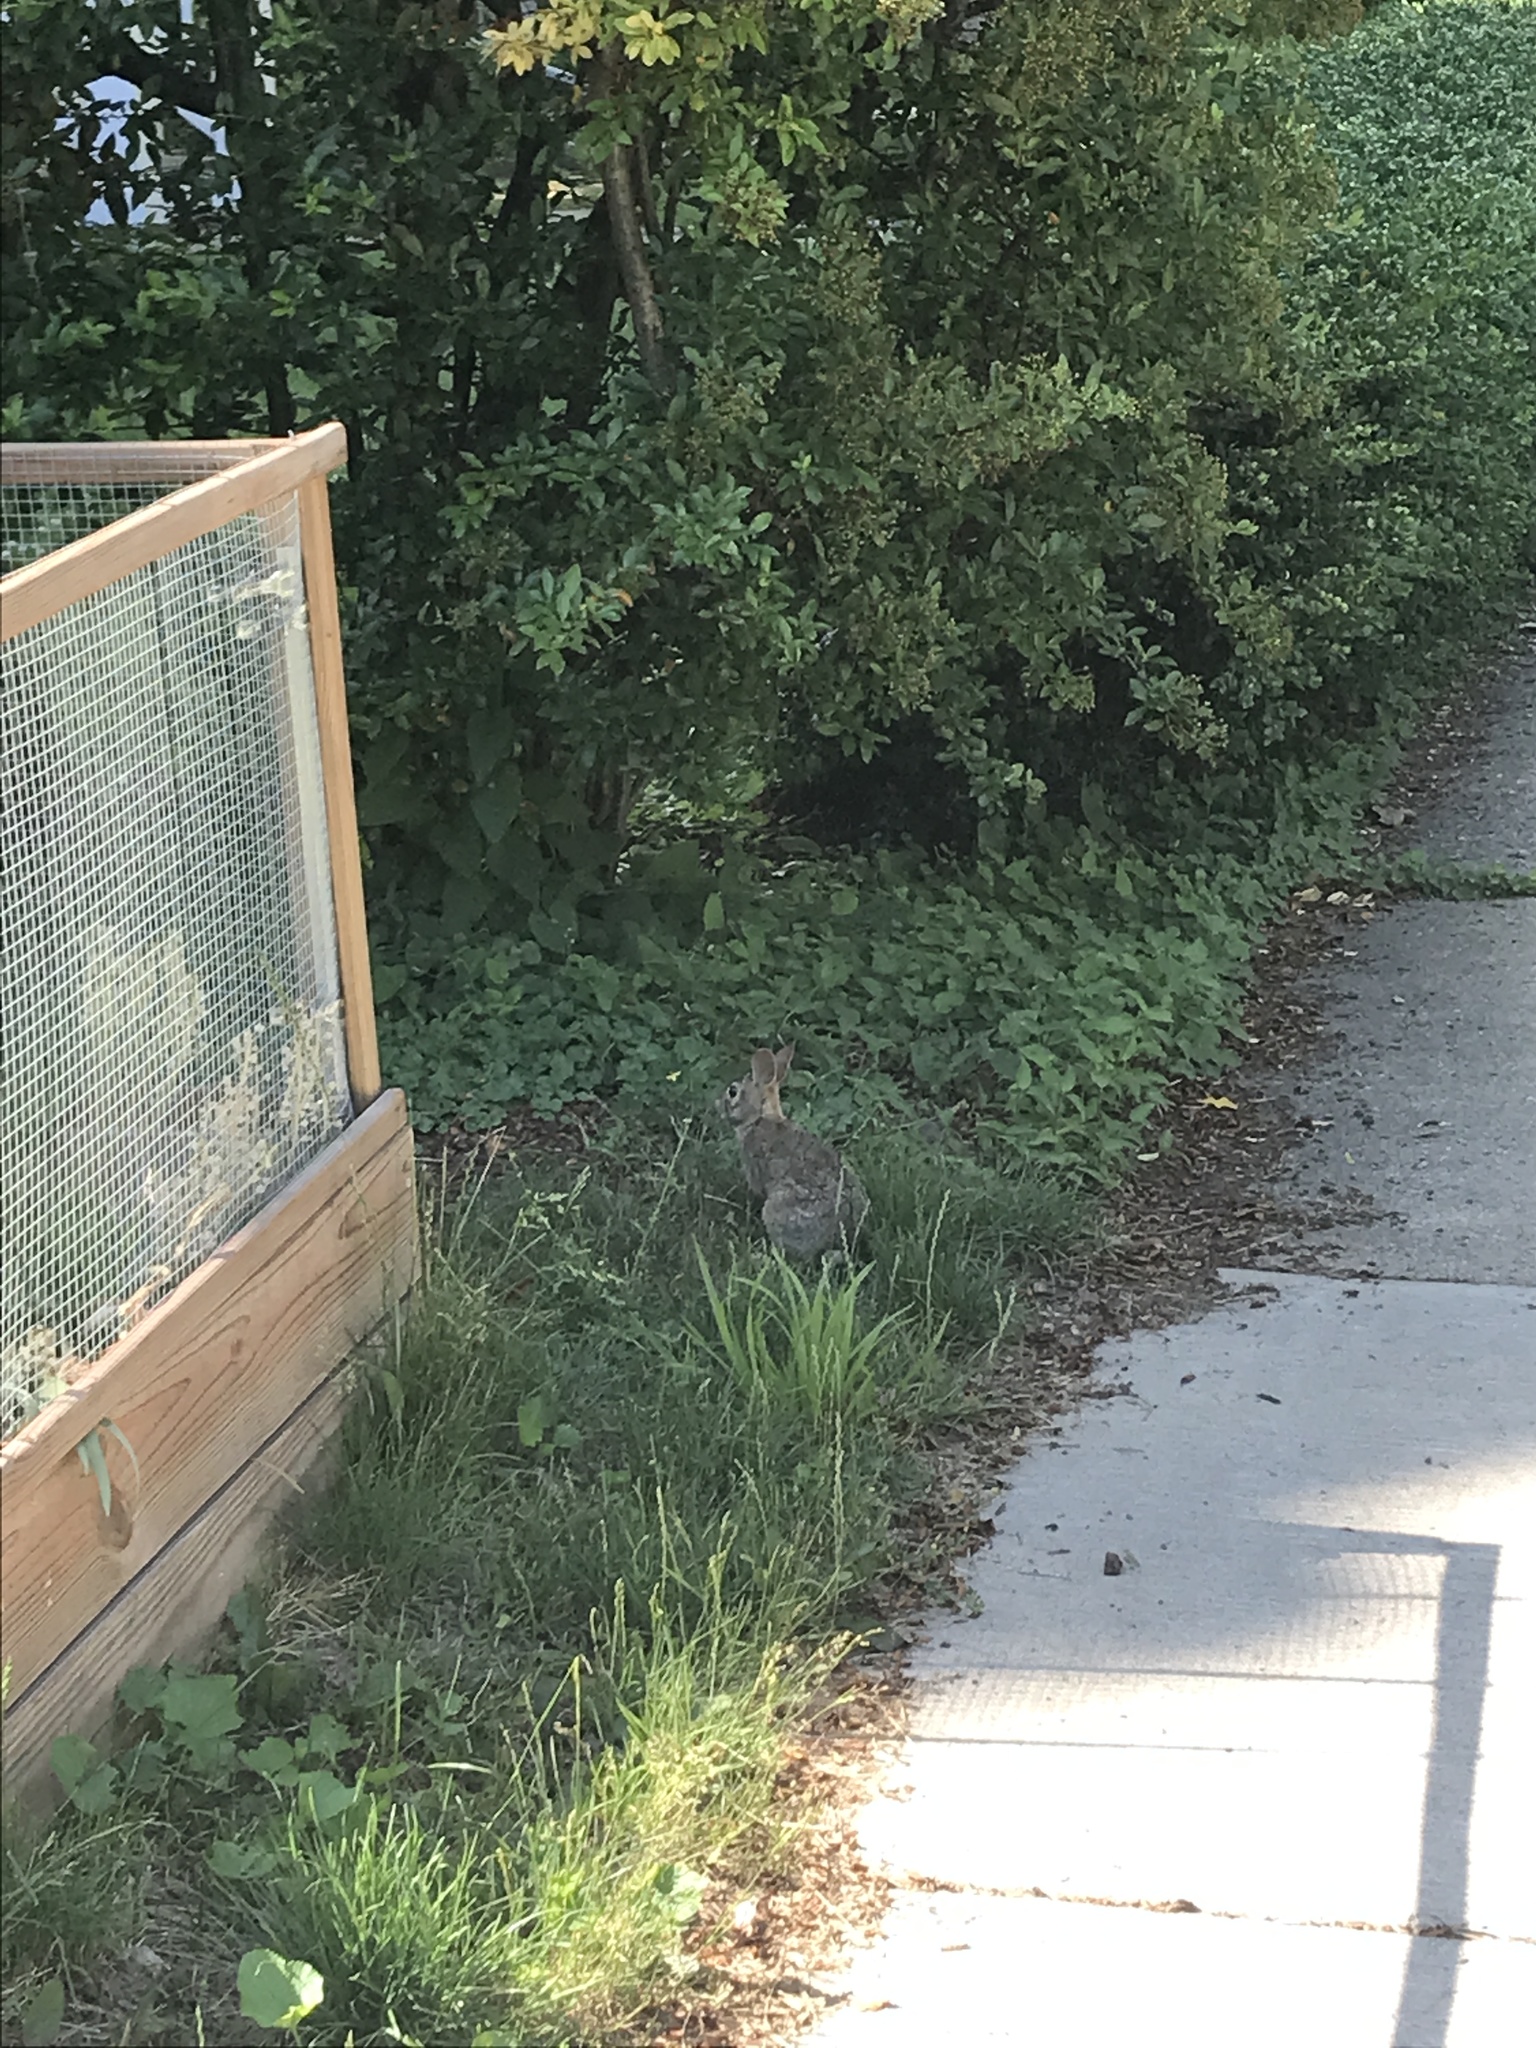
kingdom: Animalia
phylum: Chordata
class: Mammalia
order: Lagomorpha
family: Leporidae
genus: Sylvilagus
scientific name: Sylvilagus floridanus
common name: Eastern cottontail
